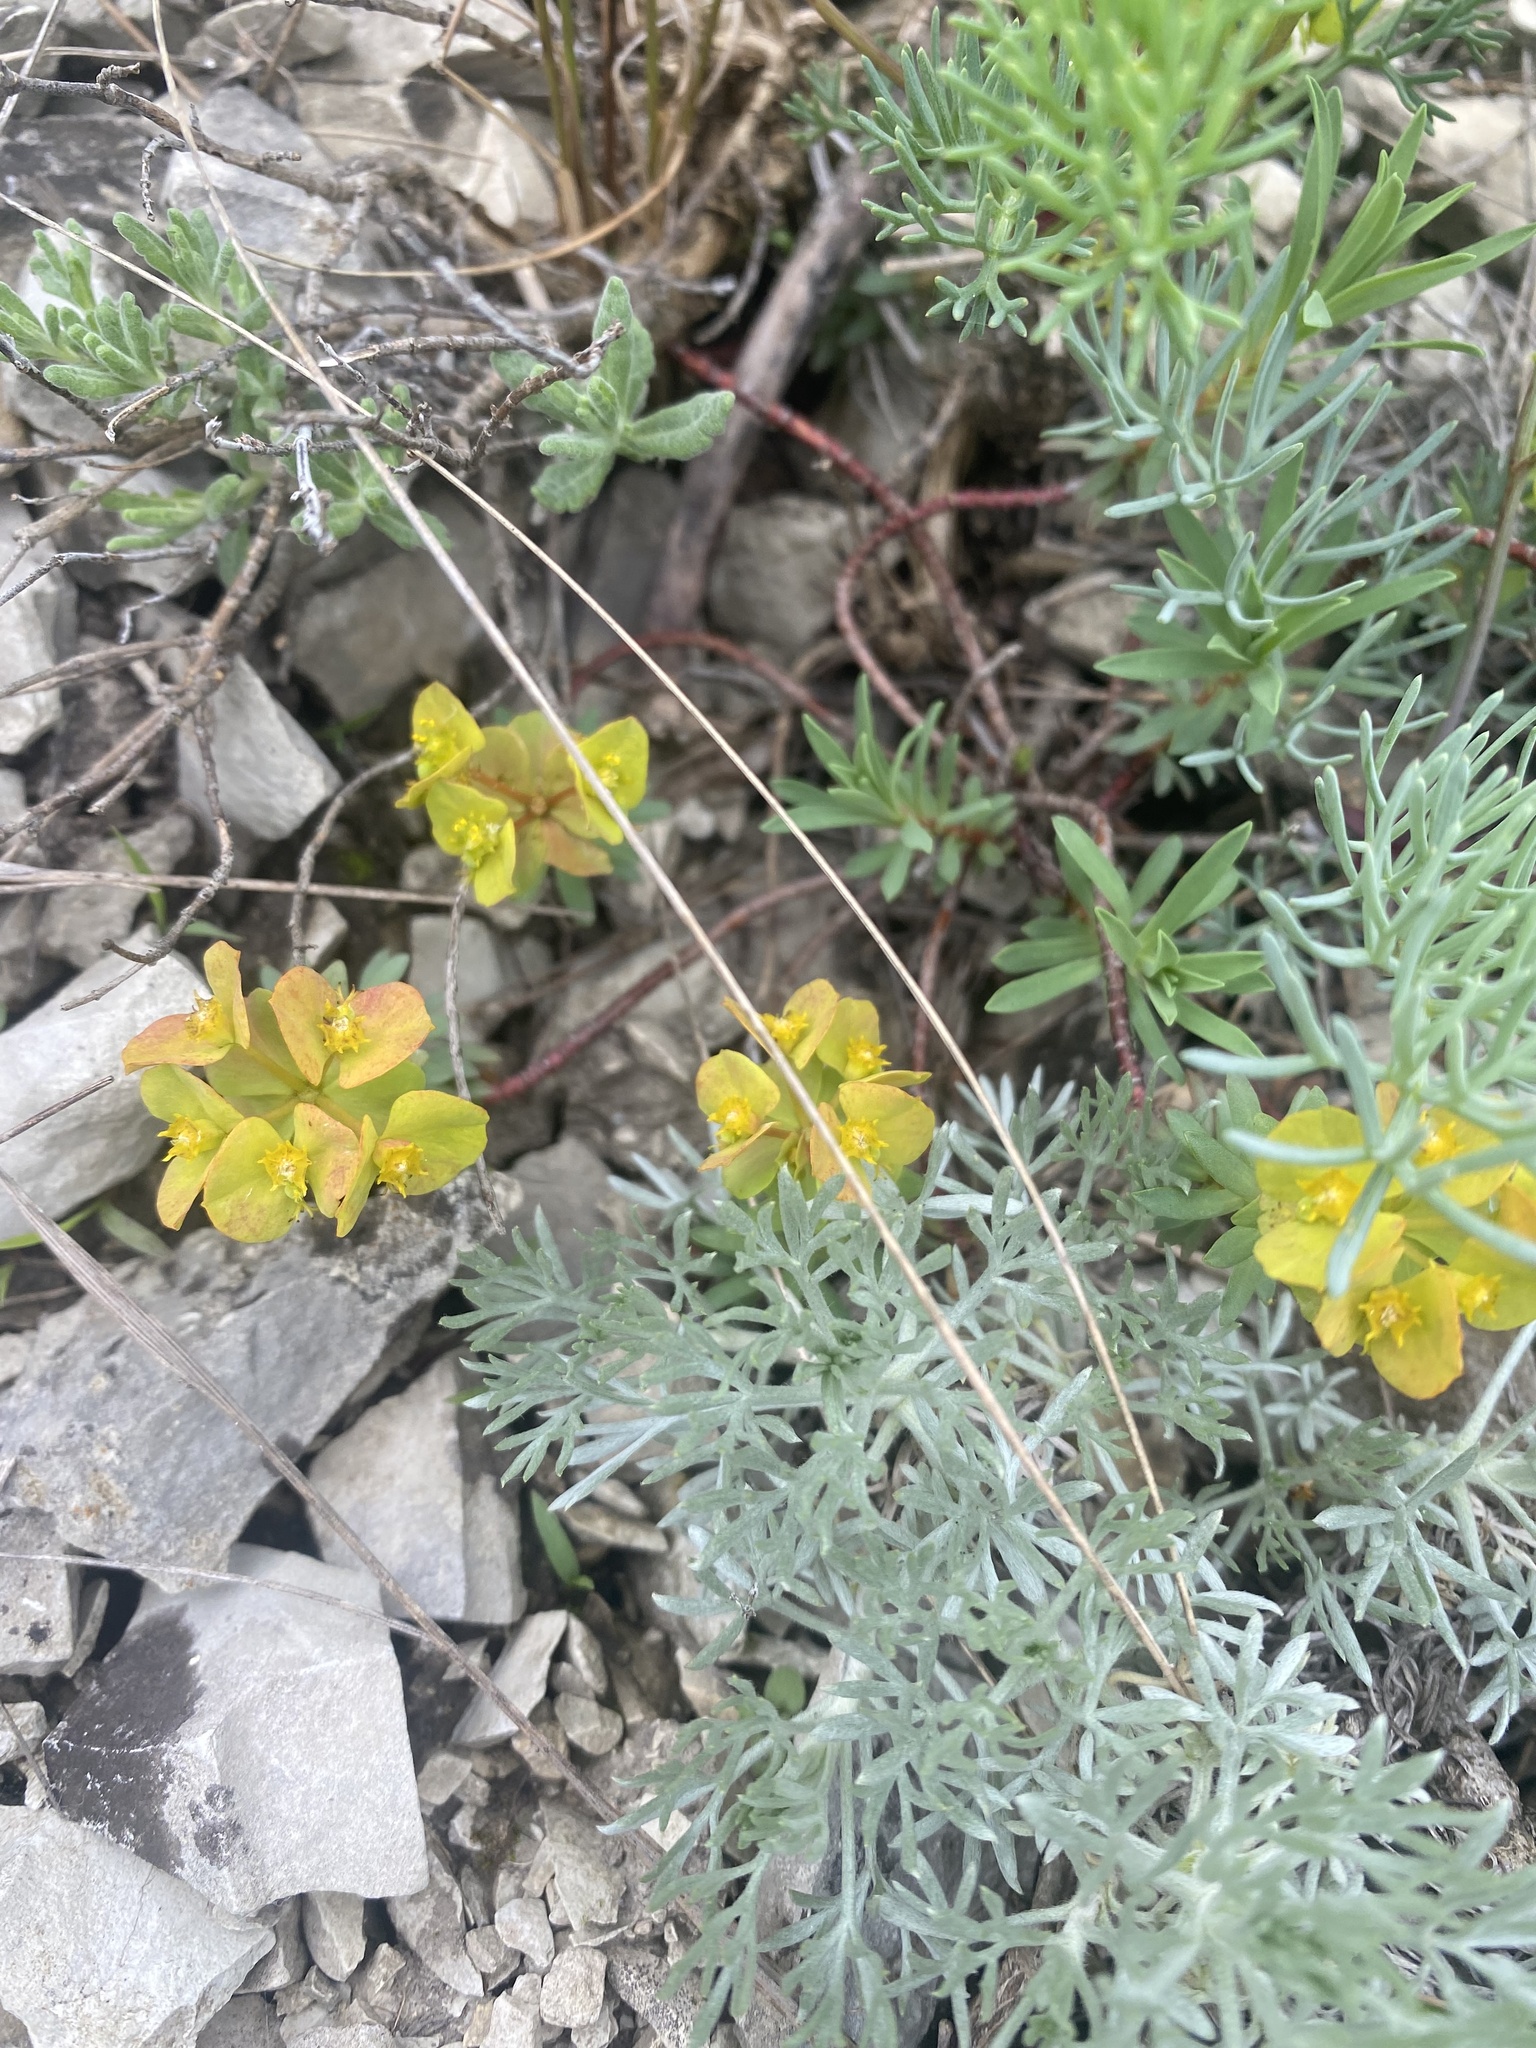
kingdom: Plantae
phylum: Tracheophyta
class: Magnoliopsida
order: Malpighiales
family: Euphorbiaceae
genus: Euphorbia
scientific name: Euphorbia petrophila
